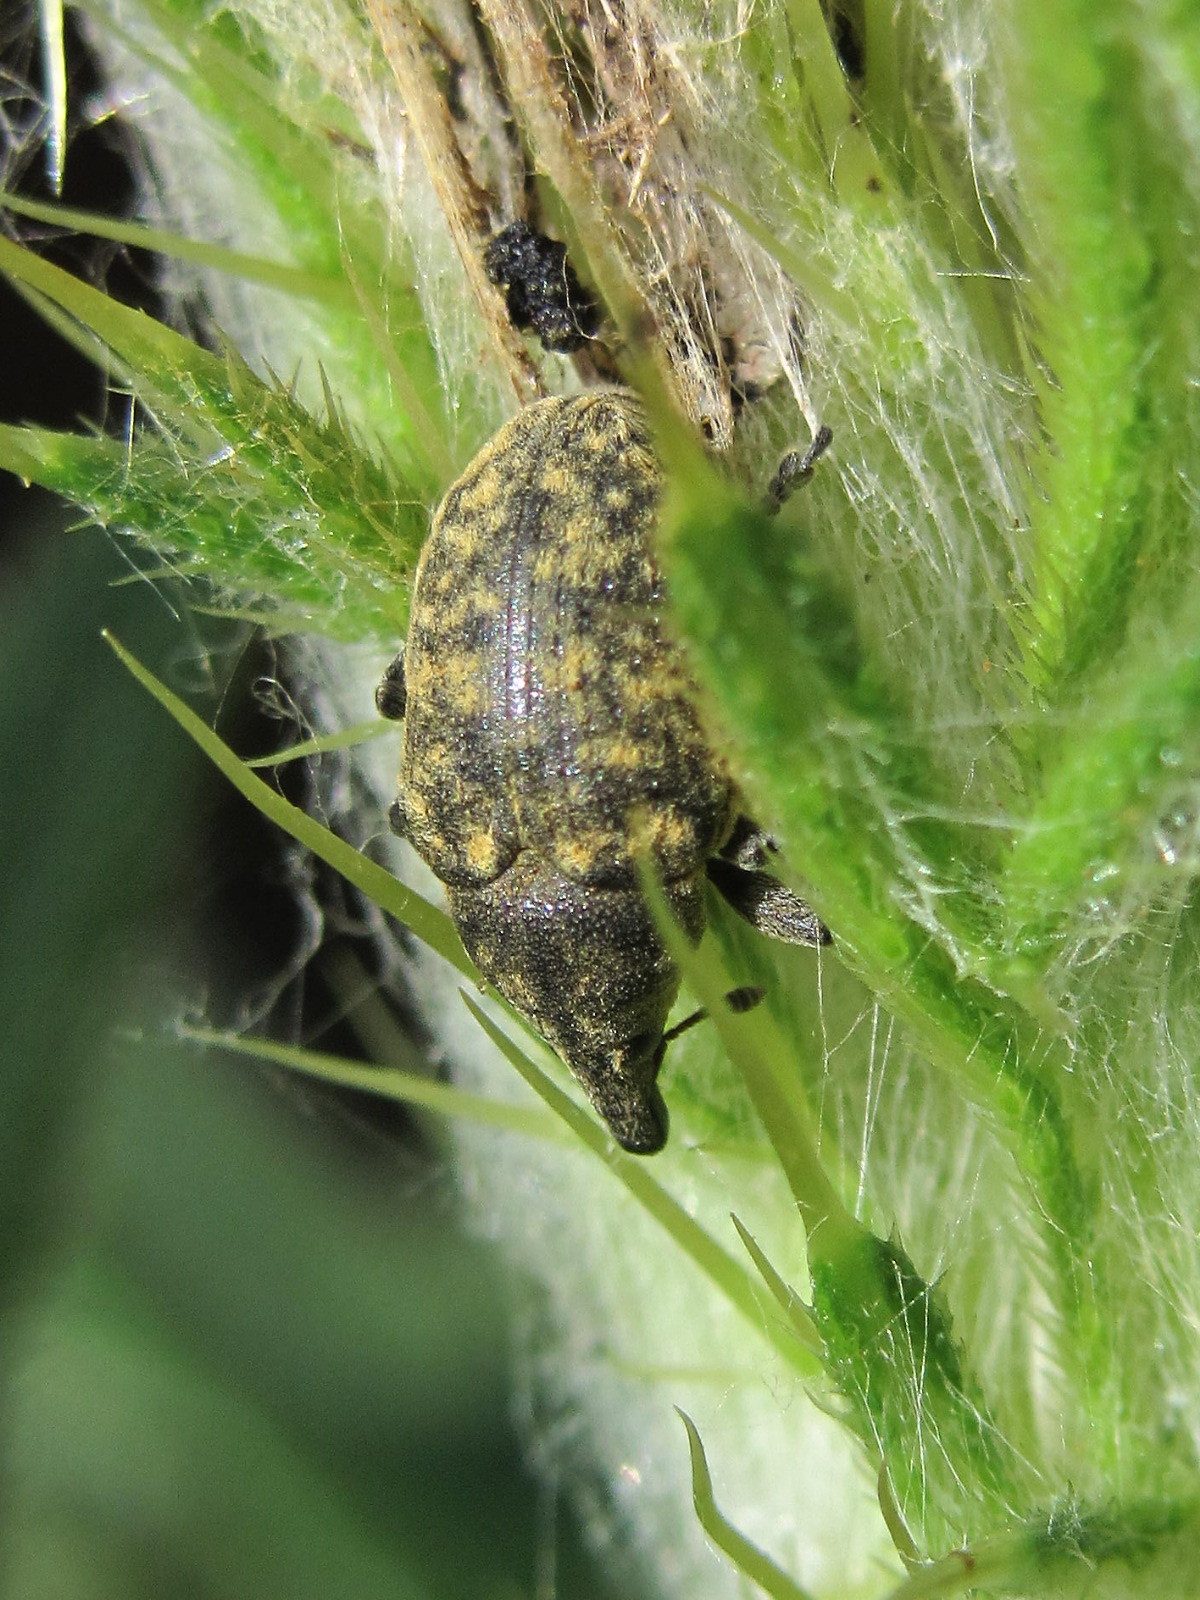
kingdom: Animalia
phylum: Arthropoda
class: Insecta
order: Coleoptera
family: Curculionidae
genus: Larinus
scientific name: Larinus turbinatus
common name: Weevil
